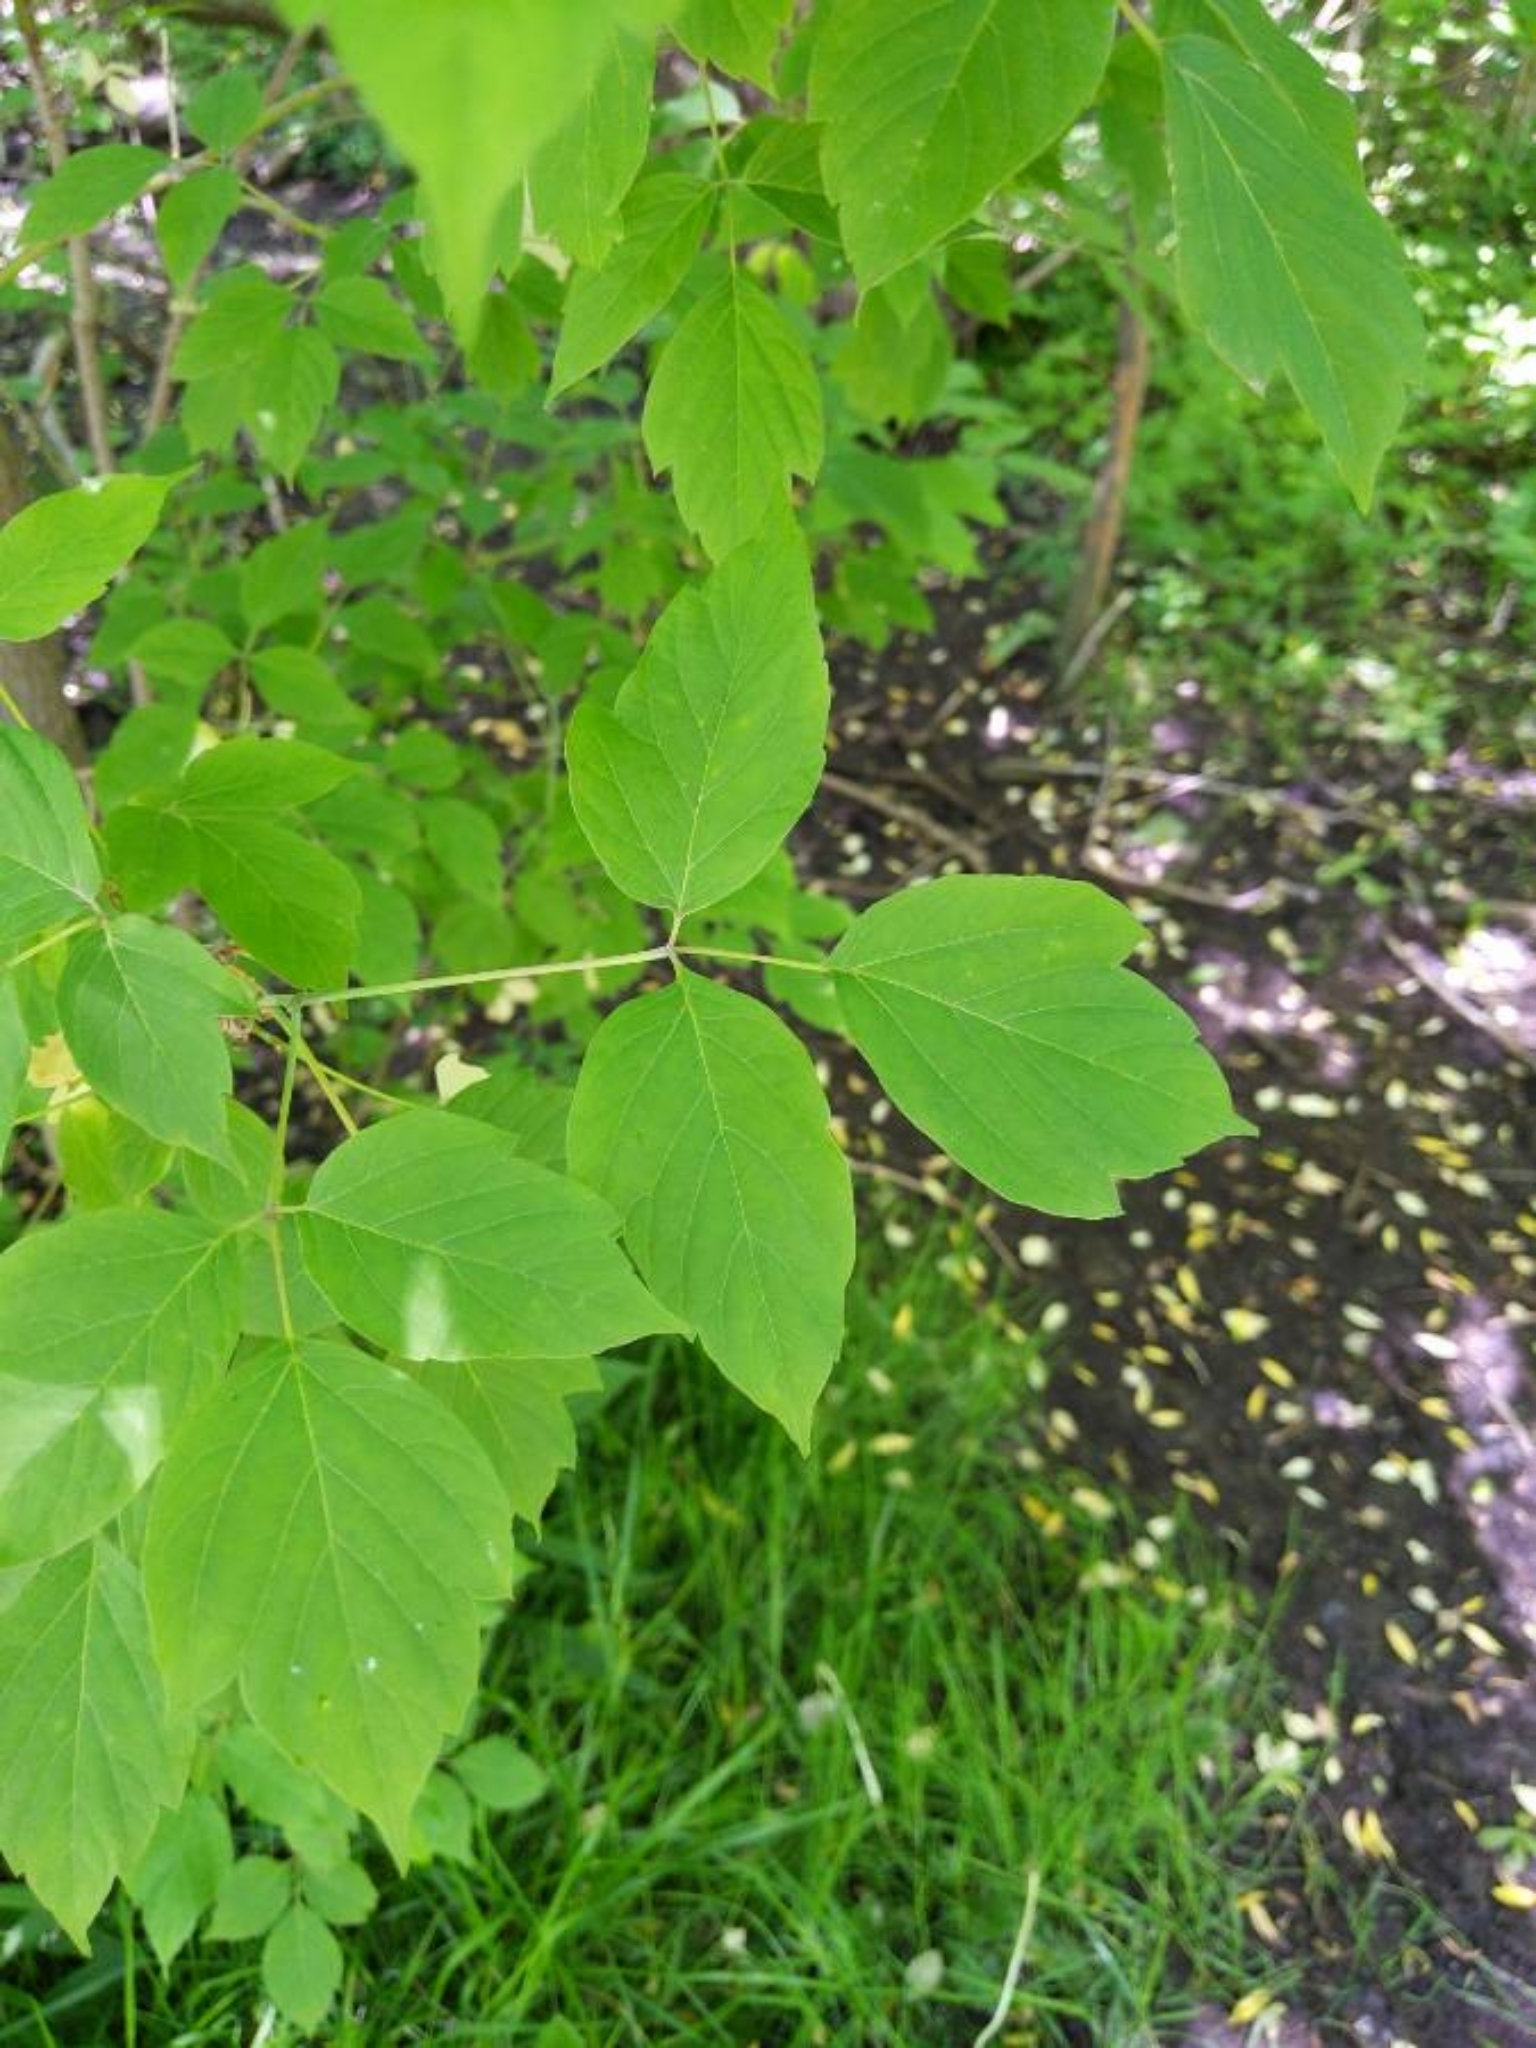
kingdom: Plantae
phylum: Tracheophyta
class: Magnoliopsida
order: Sapindales
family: Sapindaceae
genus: Acer
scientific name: Acer negundo
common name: Ashleaf maple
